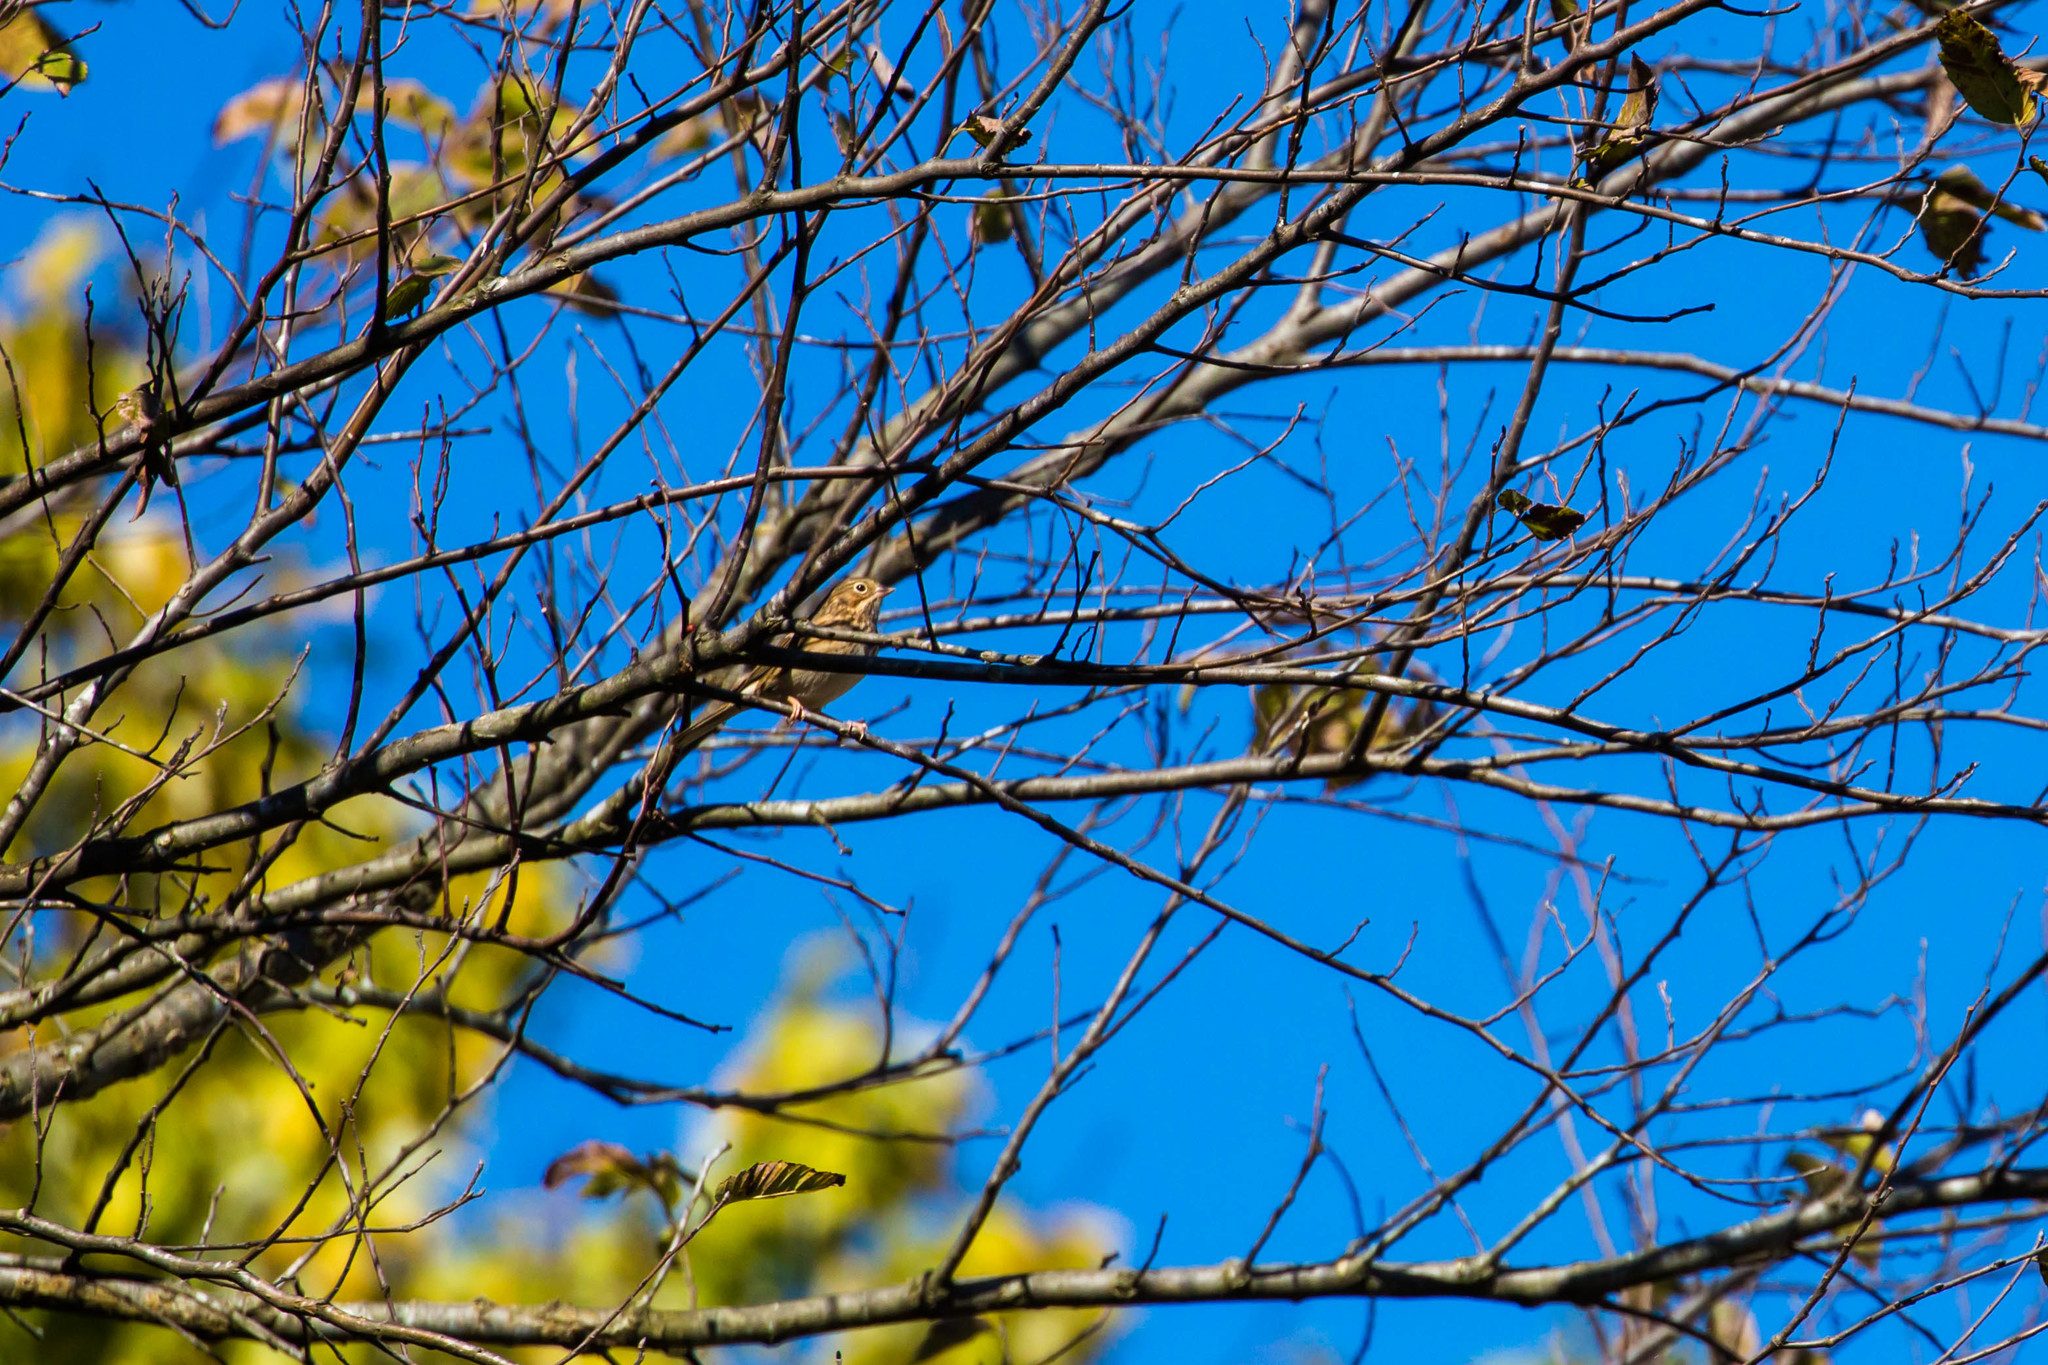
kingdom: Animalia
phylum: Chordata
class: Aves
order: Passeriformes
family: Passerellidae
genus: Pooecetes
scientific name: Pooecetes gramineus
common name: Vesper sparrow
